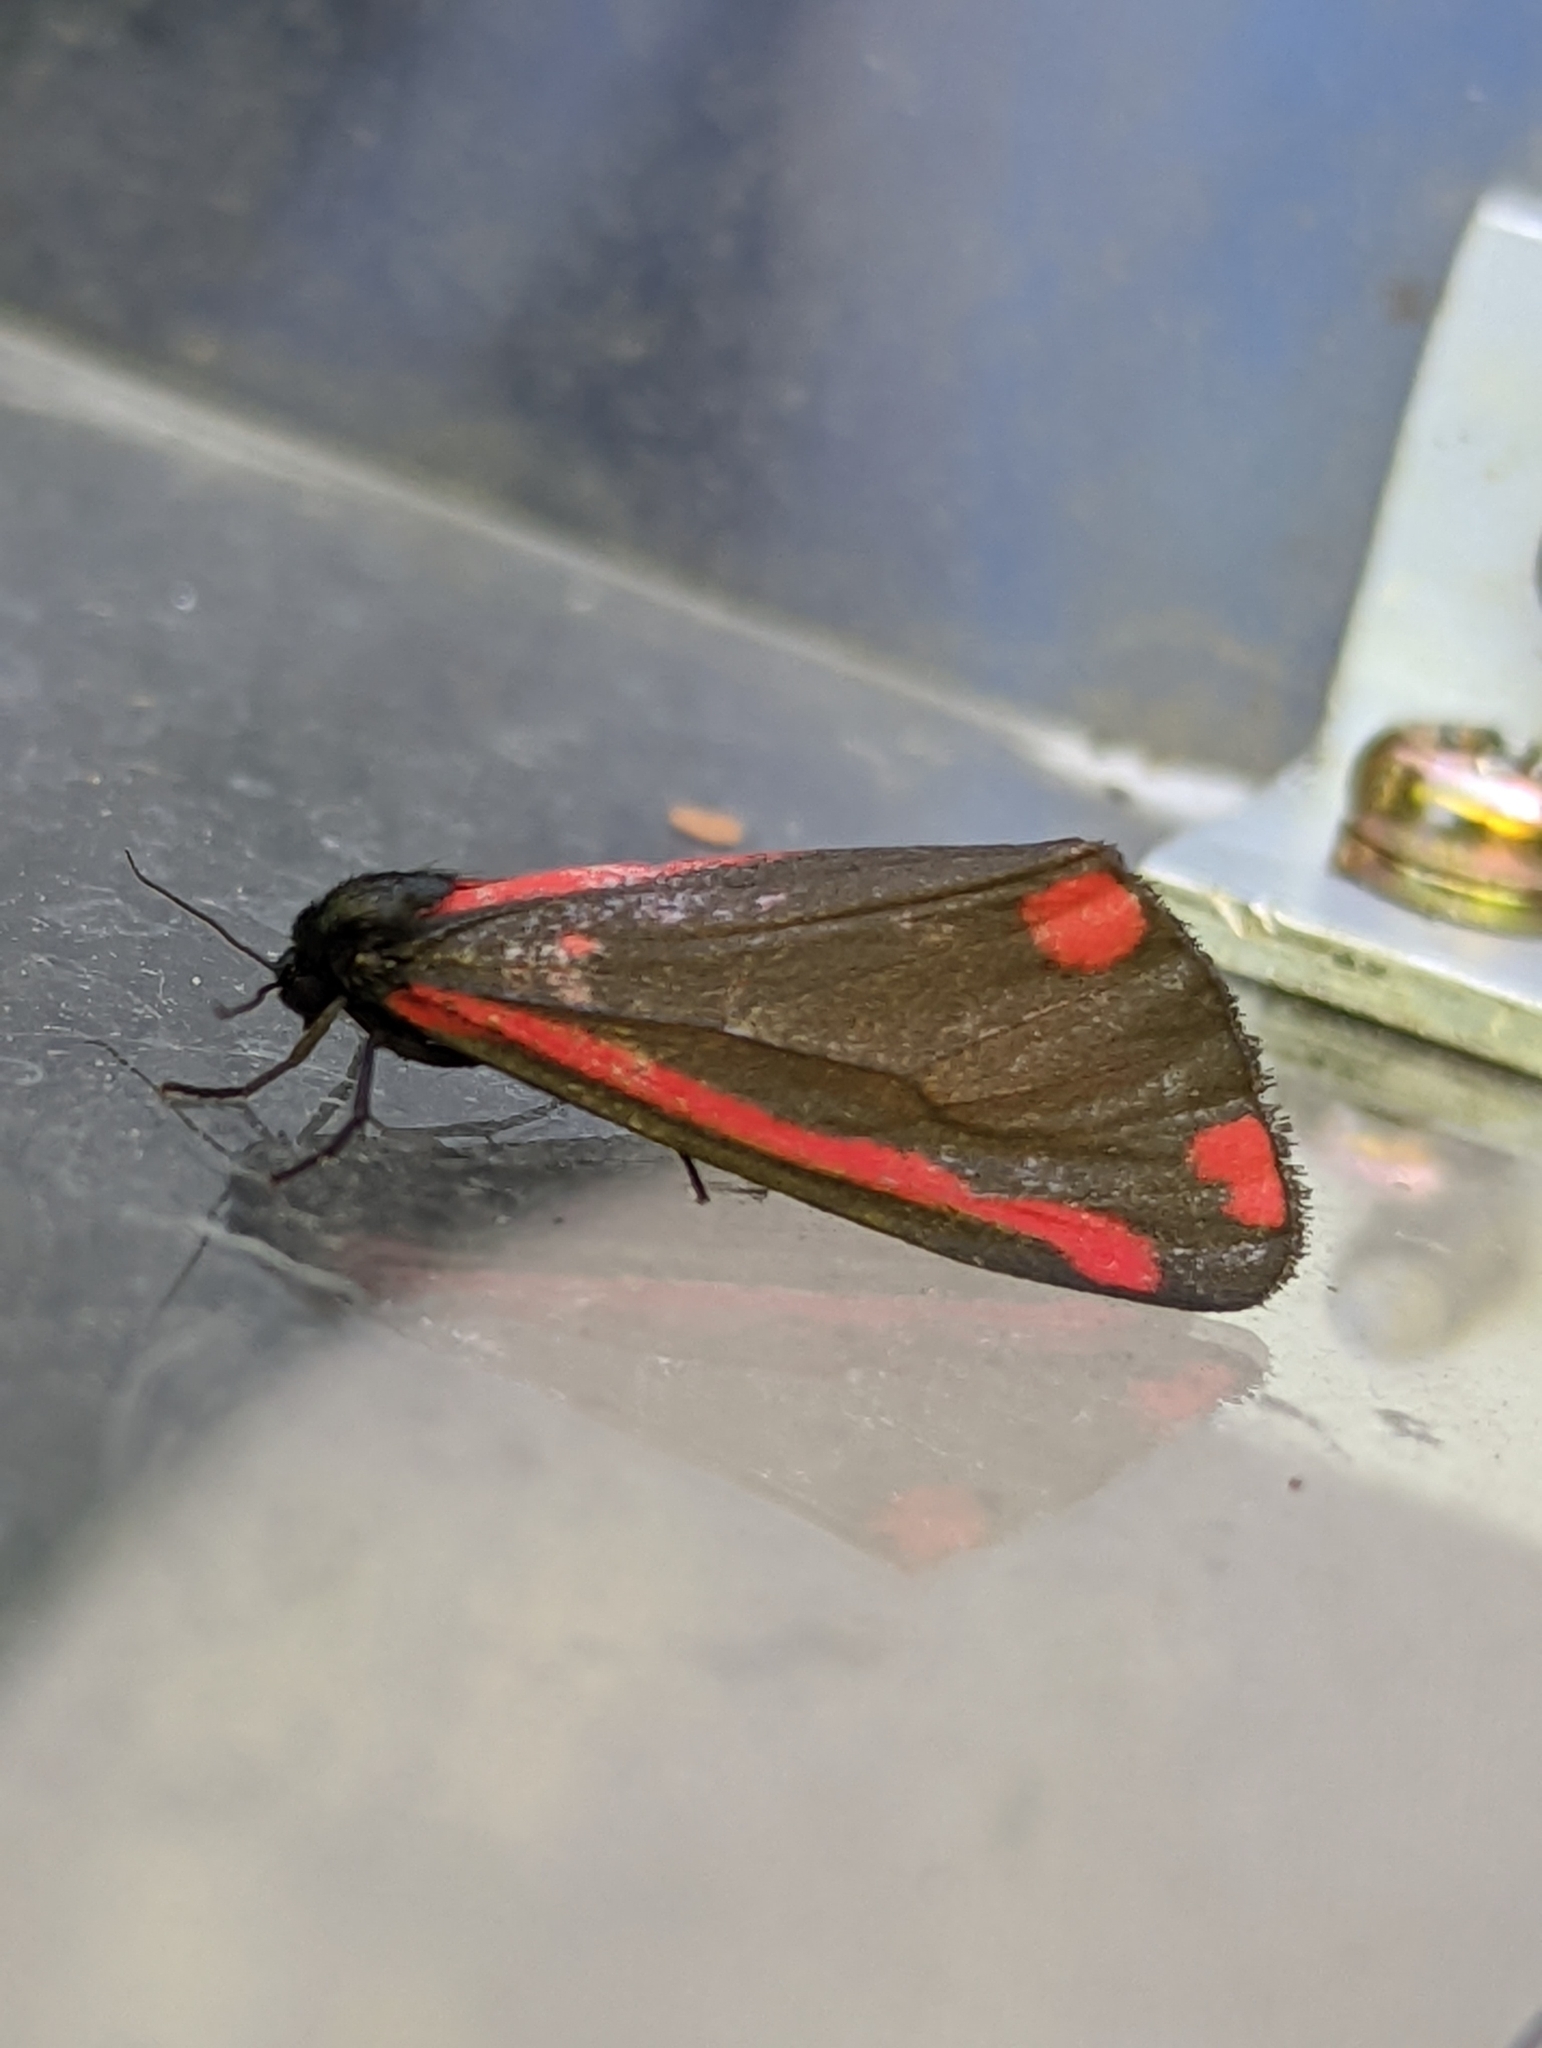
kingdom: Animalia
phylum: Arthropoda
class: Insecta
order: Lepidoptera
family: Erebidae
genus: Tyria
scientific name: Tyria jacobaeae
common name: Cinnabar
